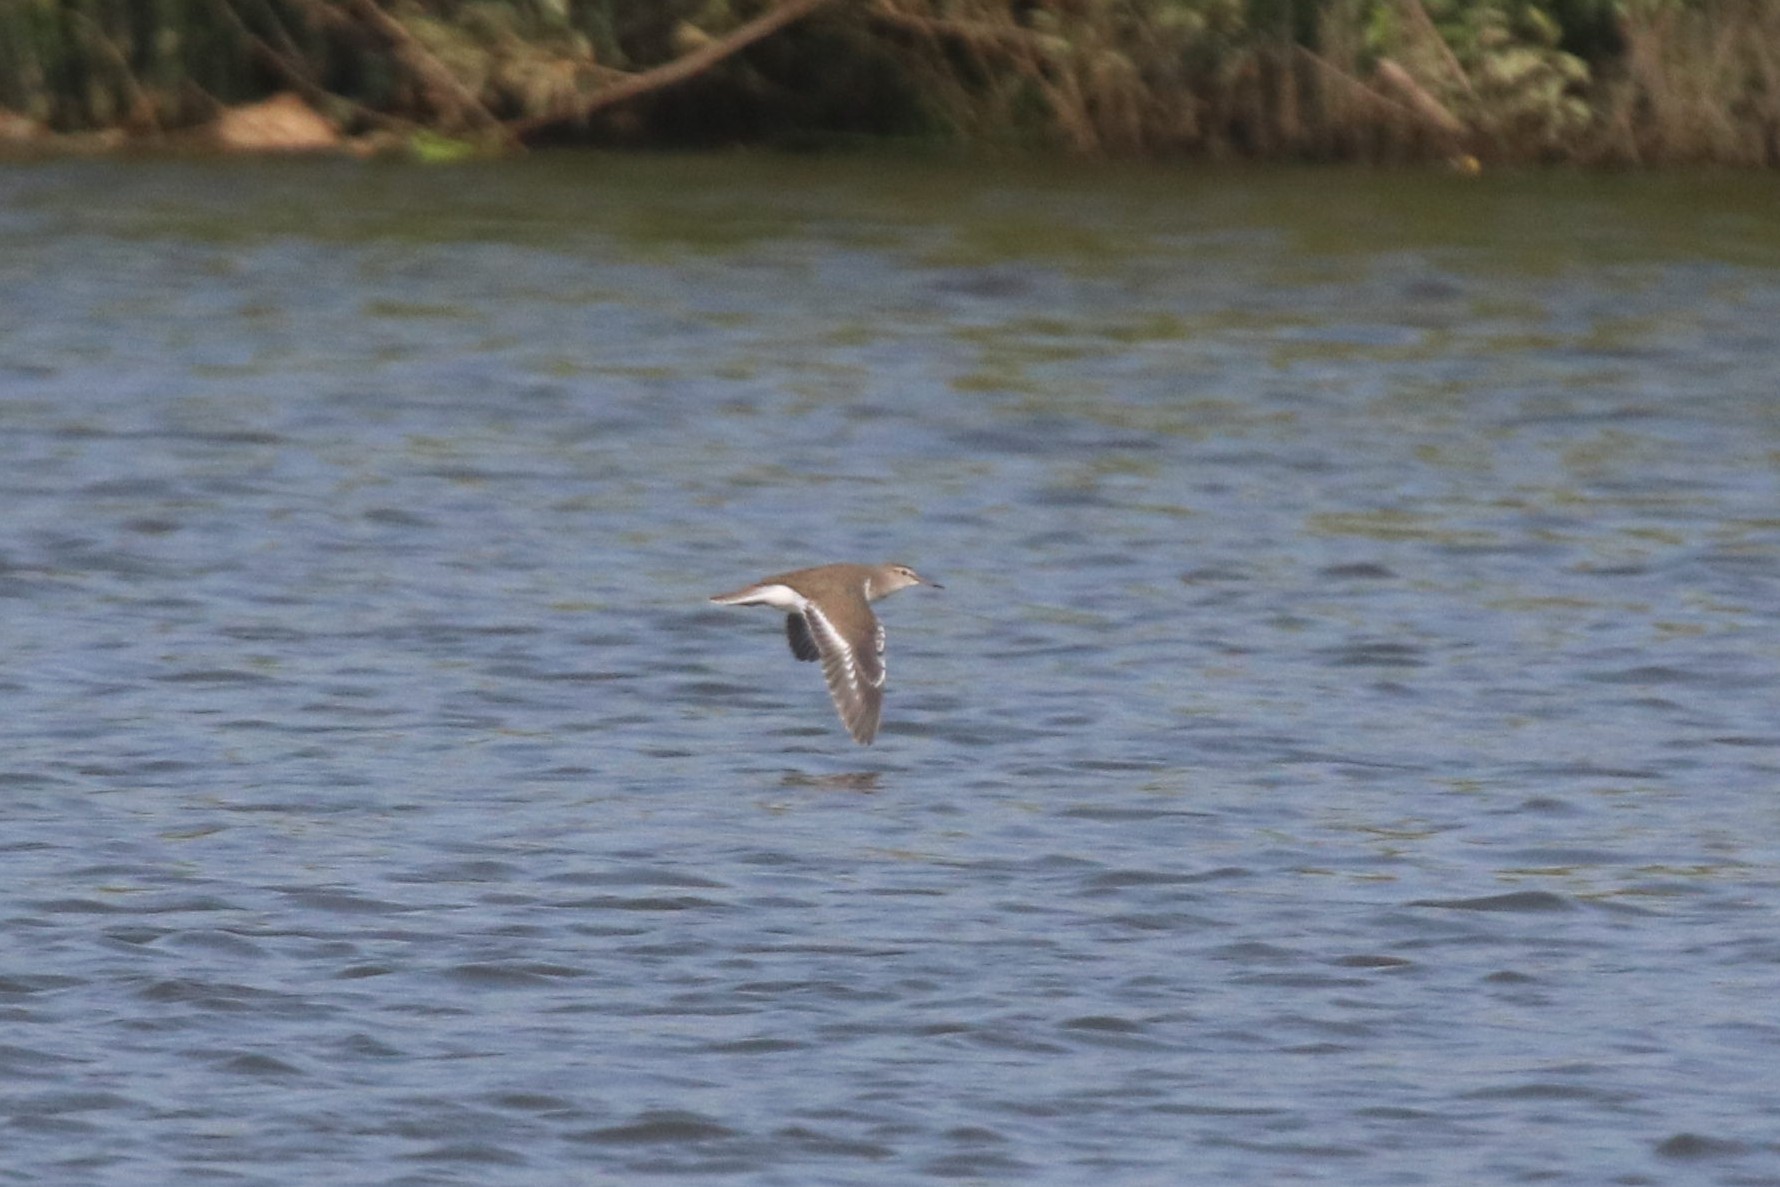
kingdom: Animalia
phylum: Chordata
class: Aves
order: Charadriiformes
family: Scolopacidae
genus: Actitis
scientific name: Actitis hypoleucos
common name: Common sandpiper
